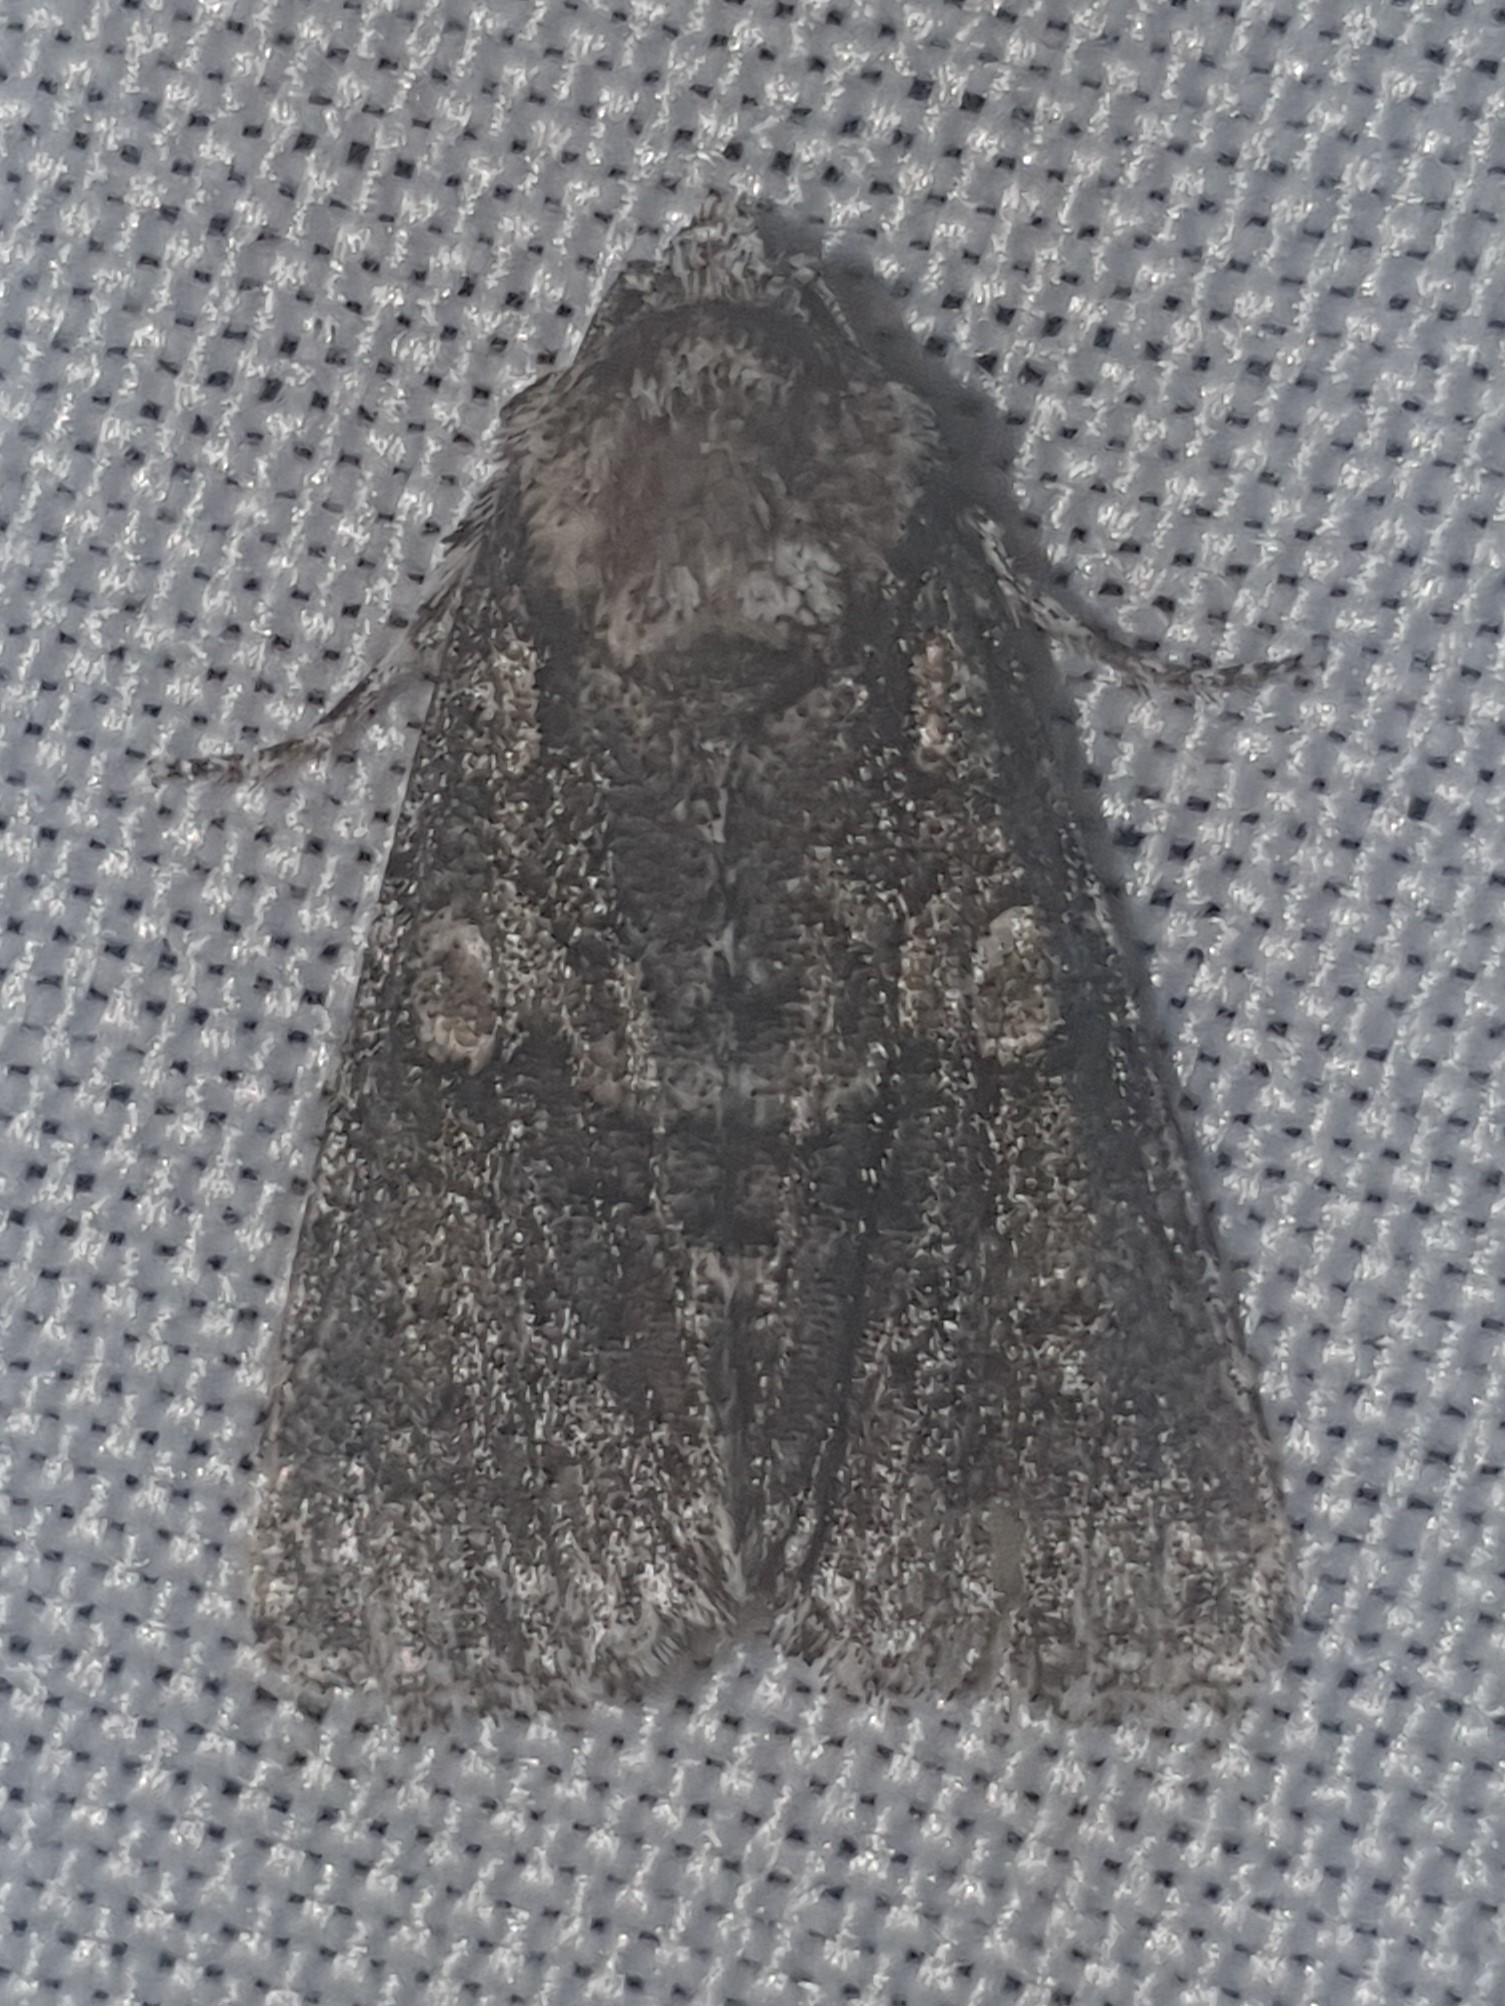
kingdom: Animalia
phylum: Arthropoda
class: Insecta
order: Lepidoptera
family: Noctuidae
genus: Craniophora
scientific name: Craniophora ligustri
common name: Coronet
